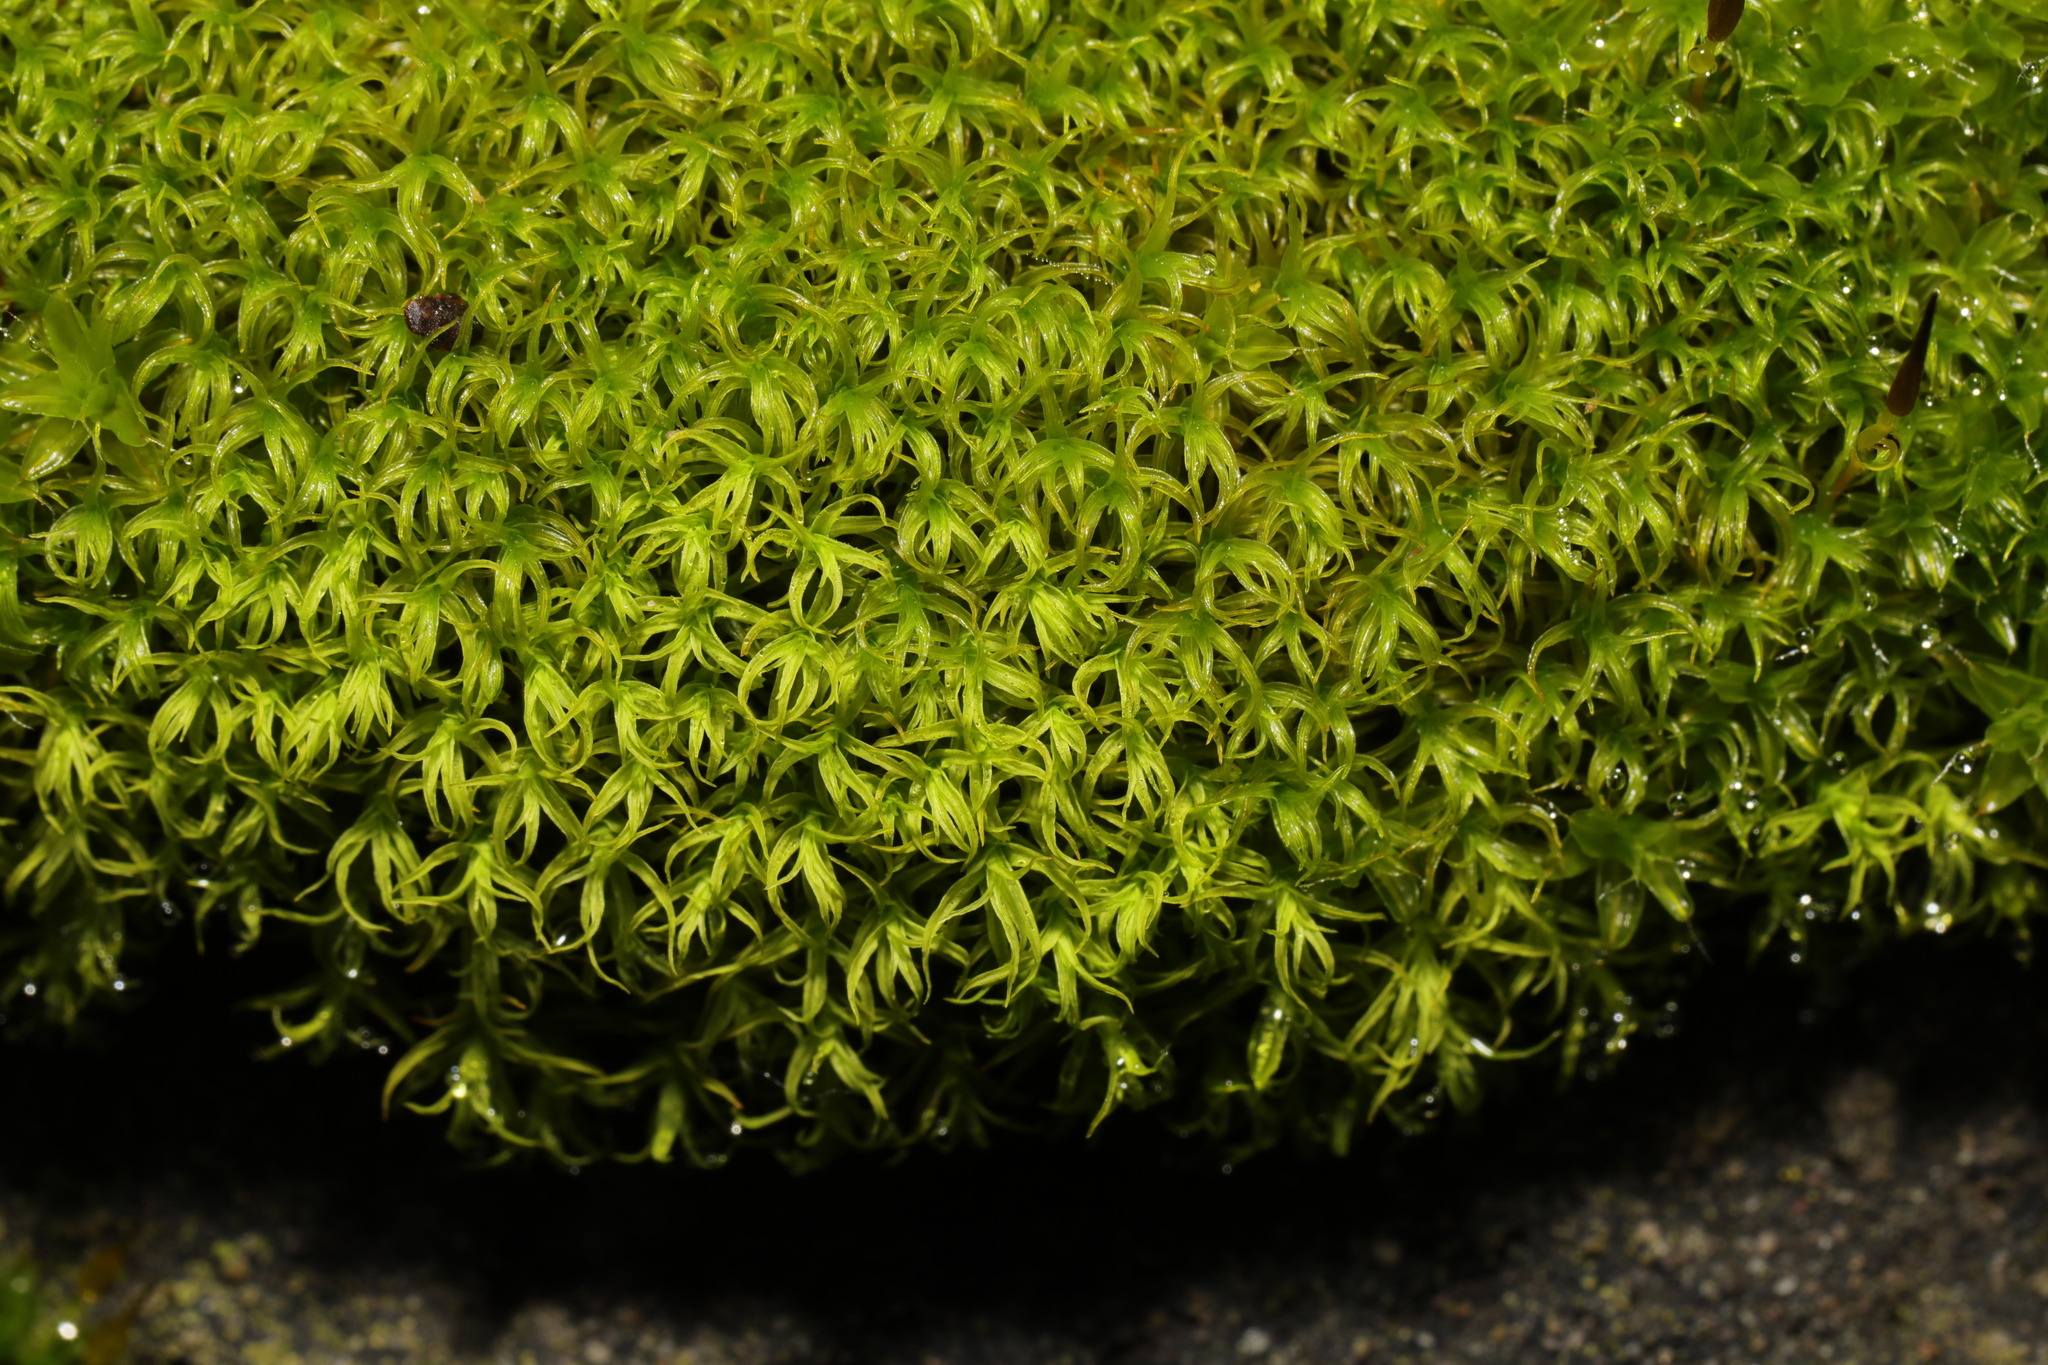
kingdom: Plantae
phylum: Bryophyta
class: Bryopsida
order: Pottiales
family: Pottiaceae
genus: Vinealobryum
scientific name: Vinealobryum insulanum
